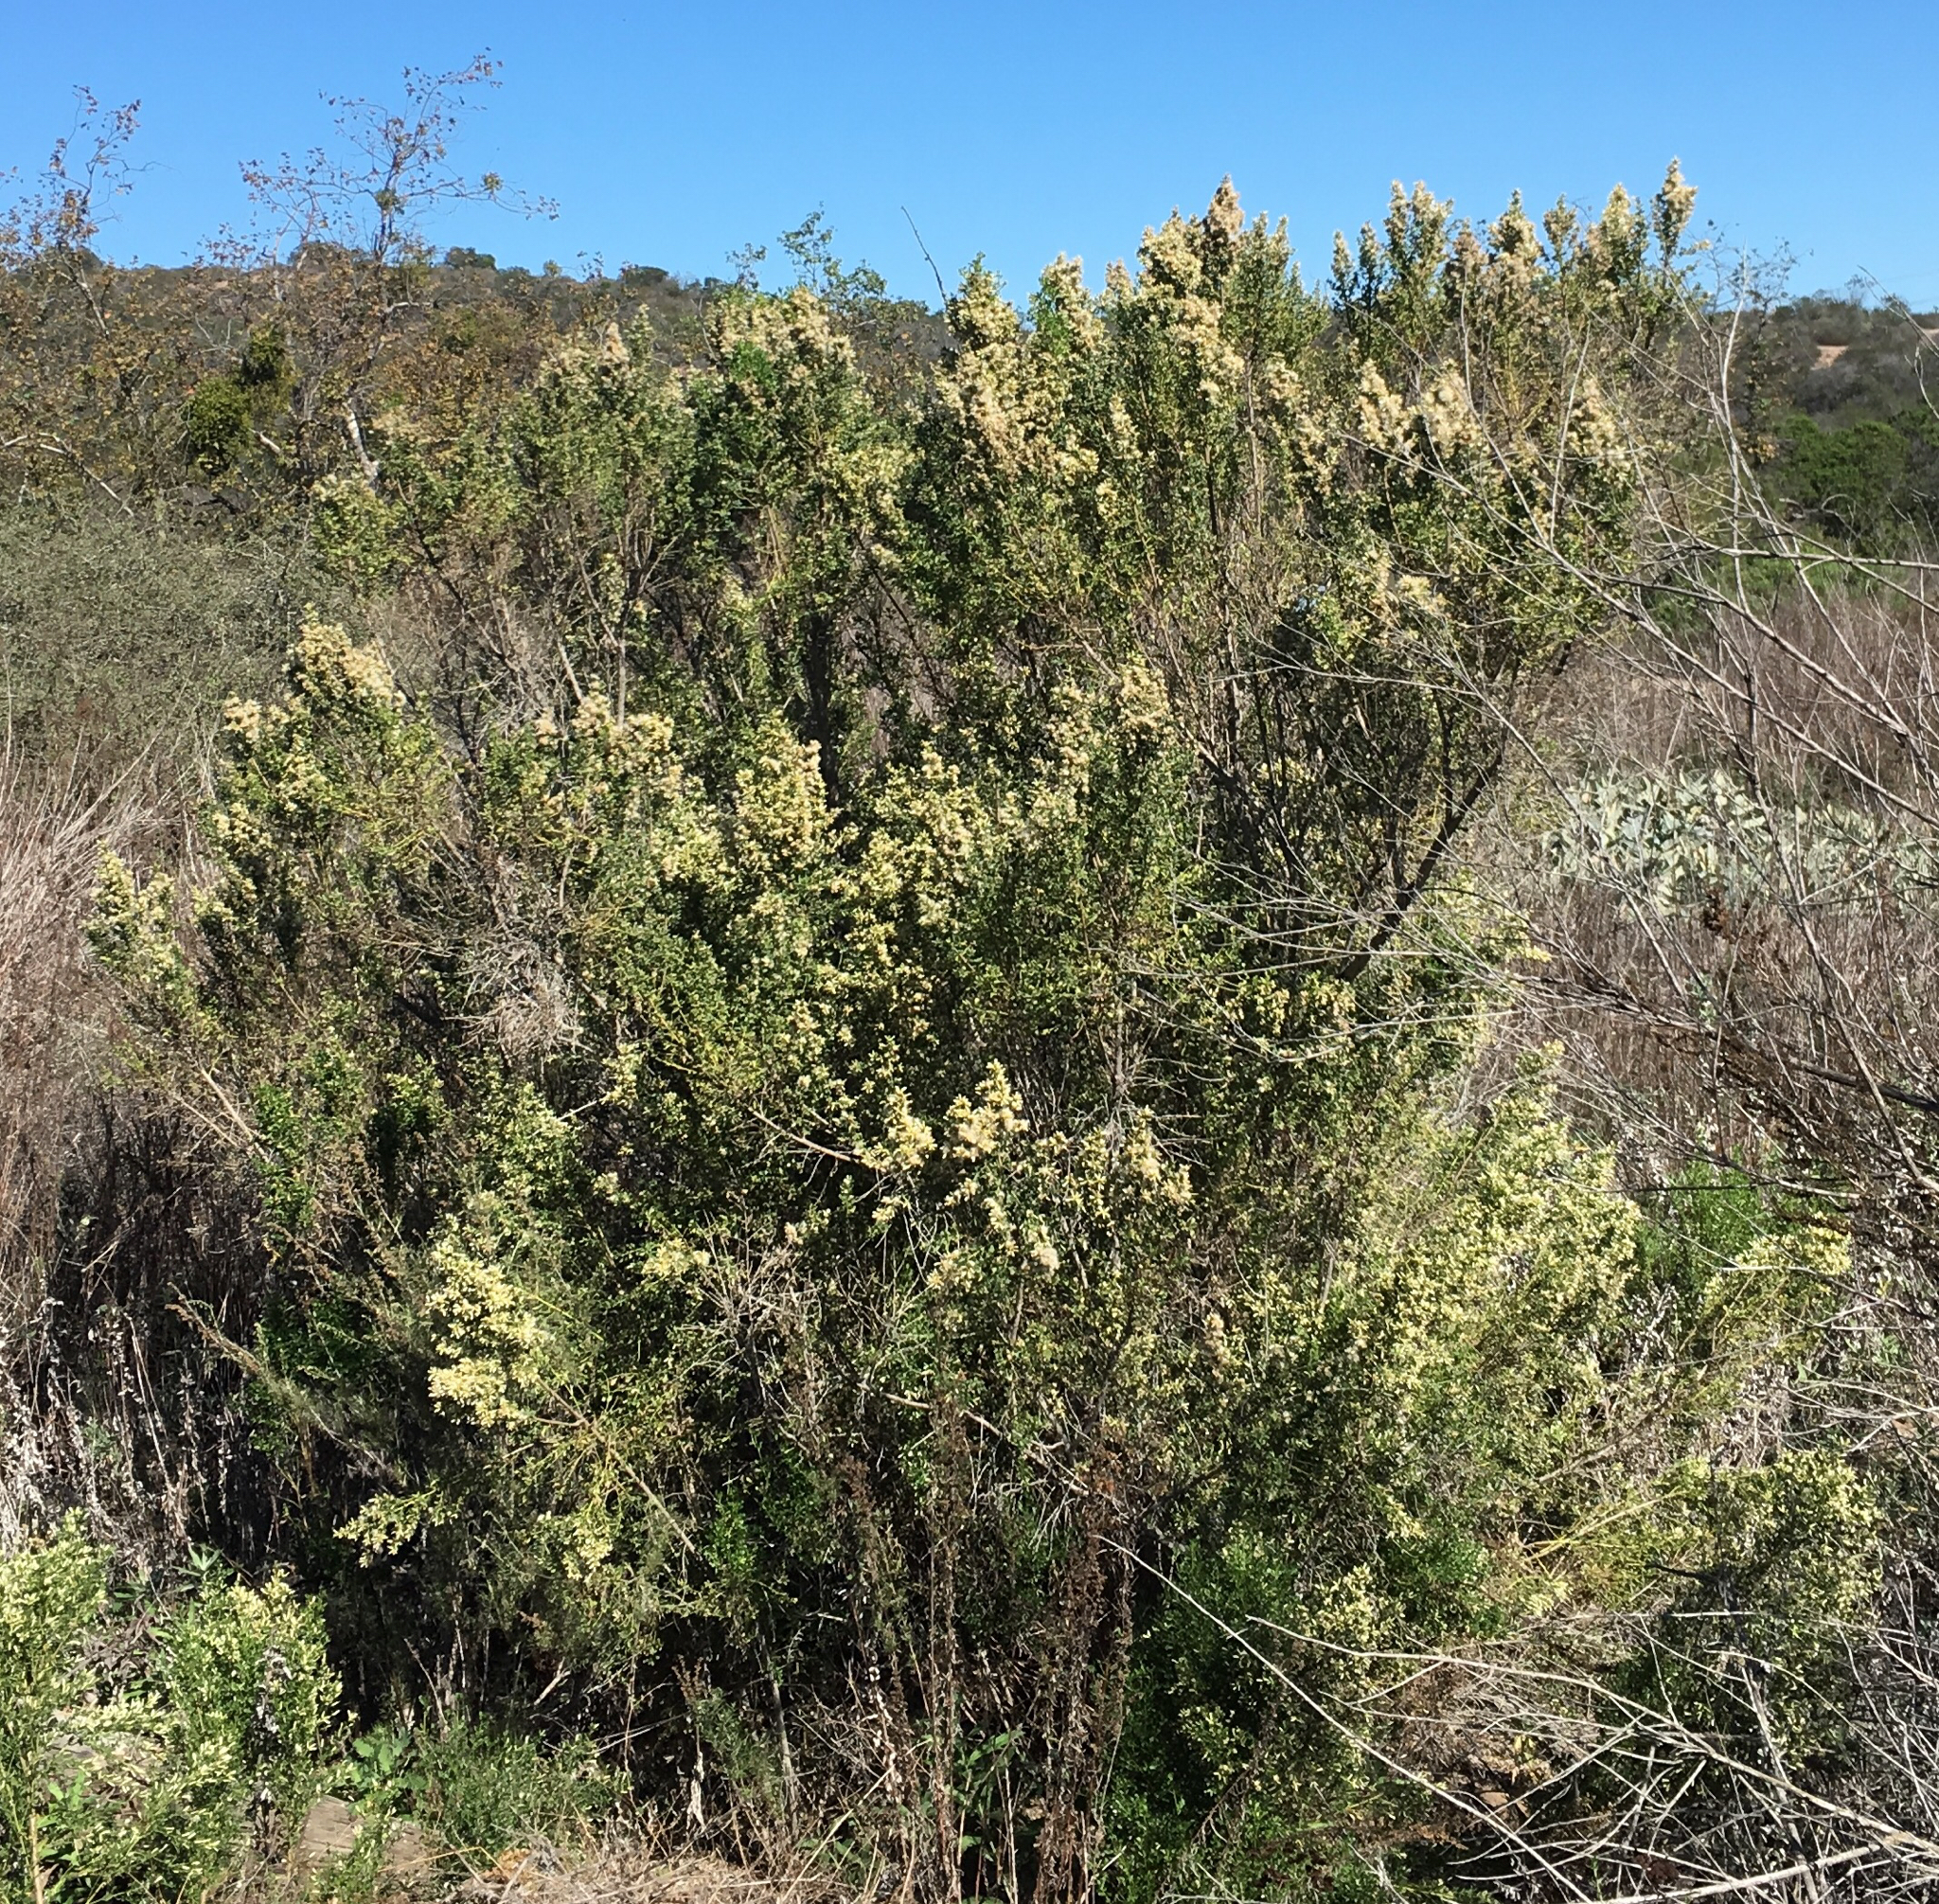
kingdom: Plantae
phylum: Tracheophyta
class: Magnoliopsida
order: Asterales
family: Asteraceae
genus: Baccharis
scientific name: Baccharis pilularis
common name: Coyotebrush
